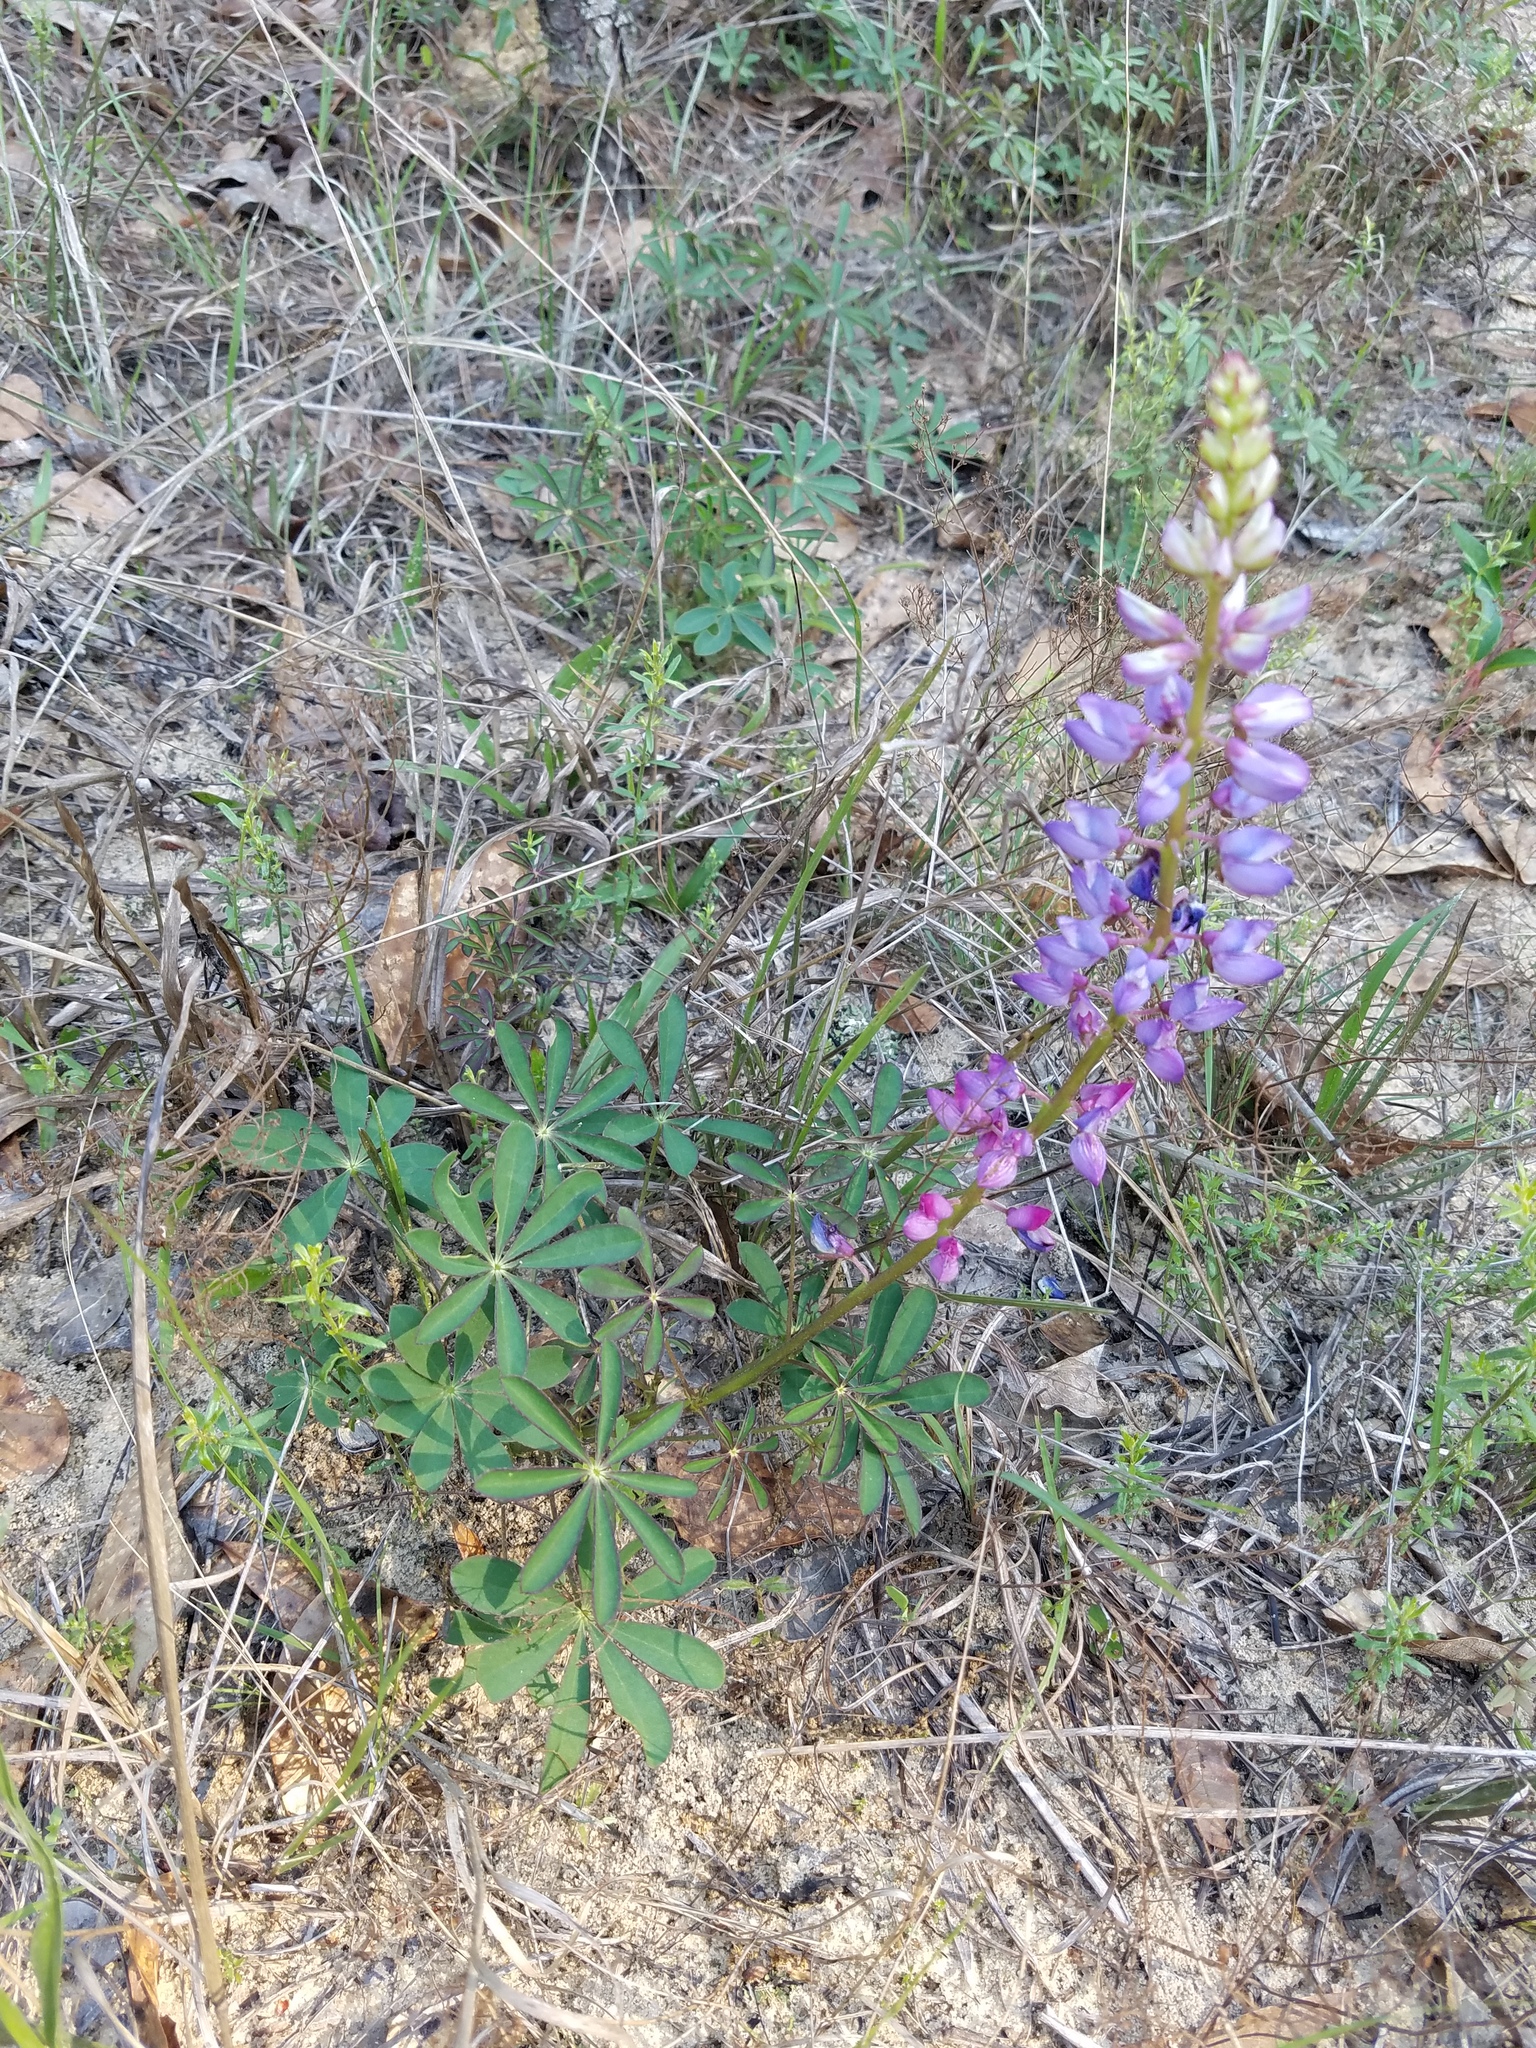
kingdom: Plantae
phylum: Tracheophyta
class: Magnoliopsida
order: Fabales
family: Fabaceae
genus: Lupinus
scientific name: Lupinus perennis
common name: Sundial lupine
